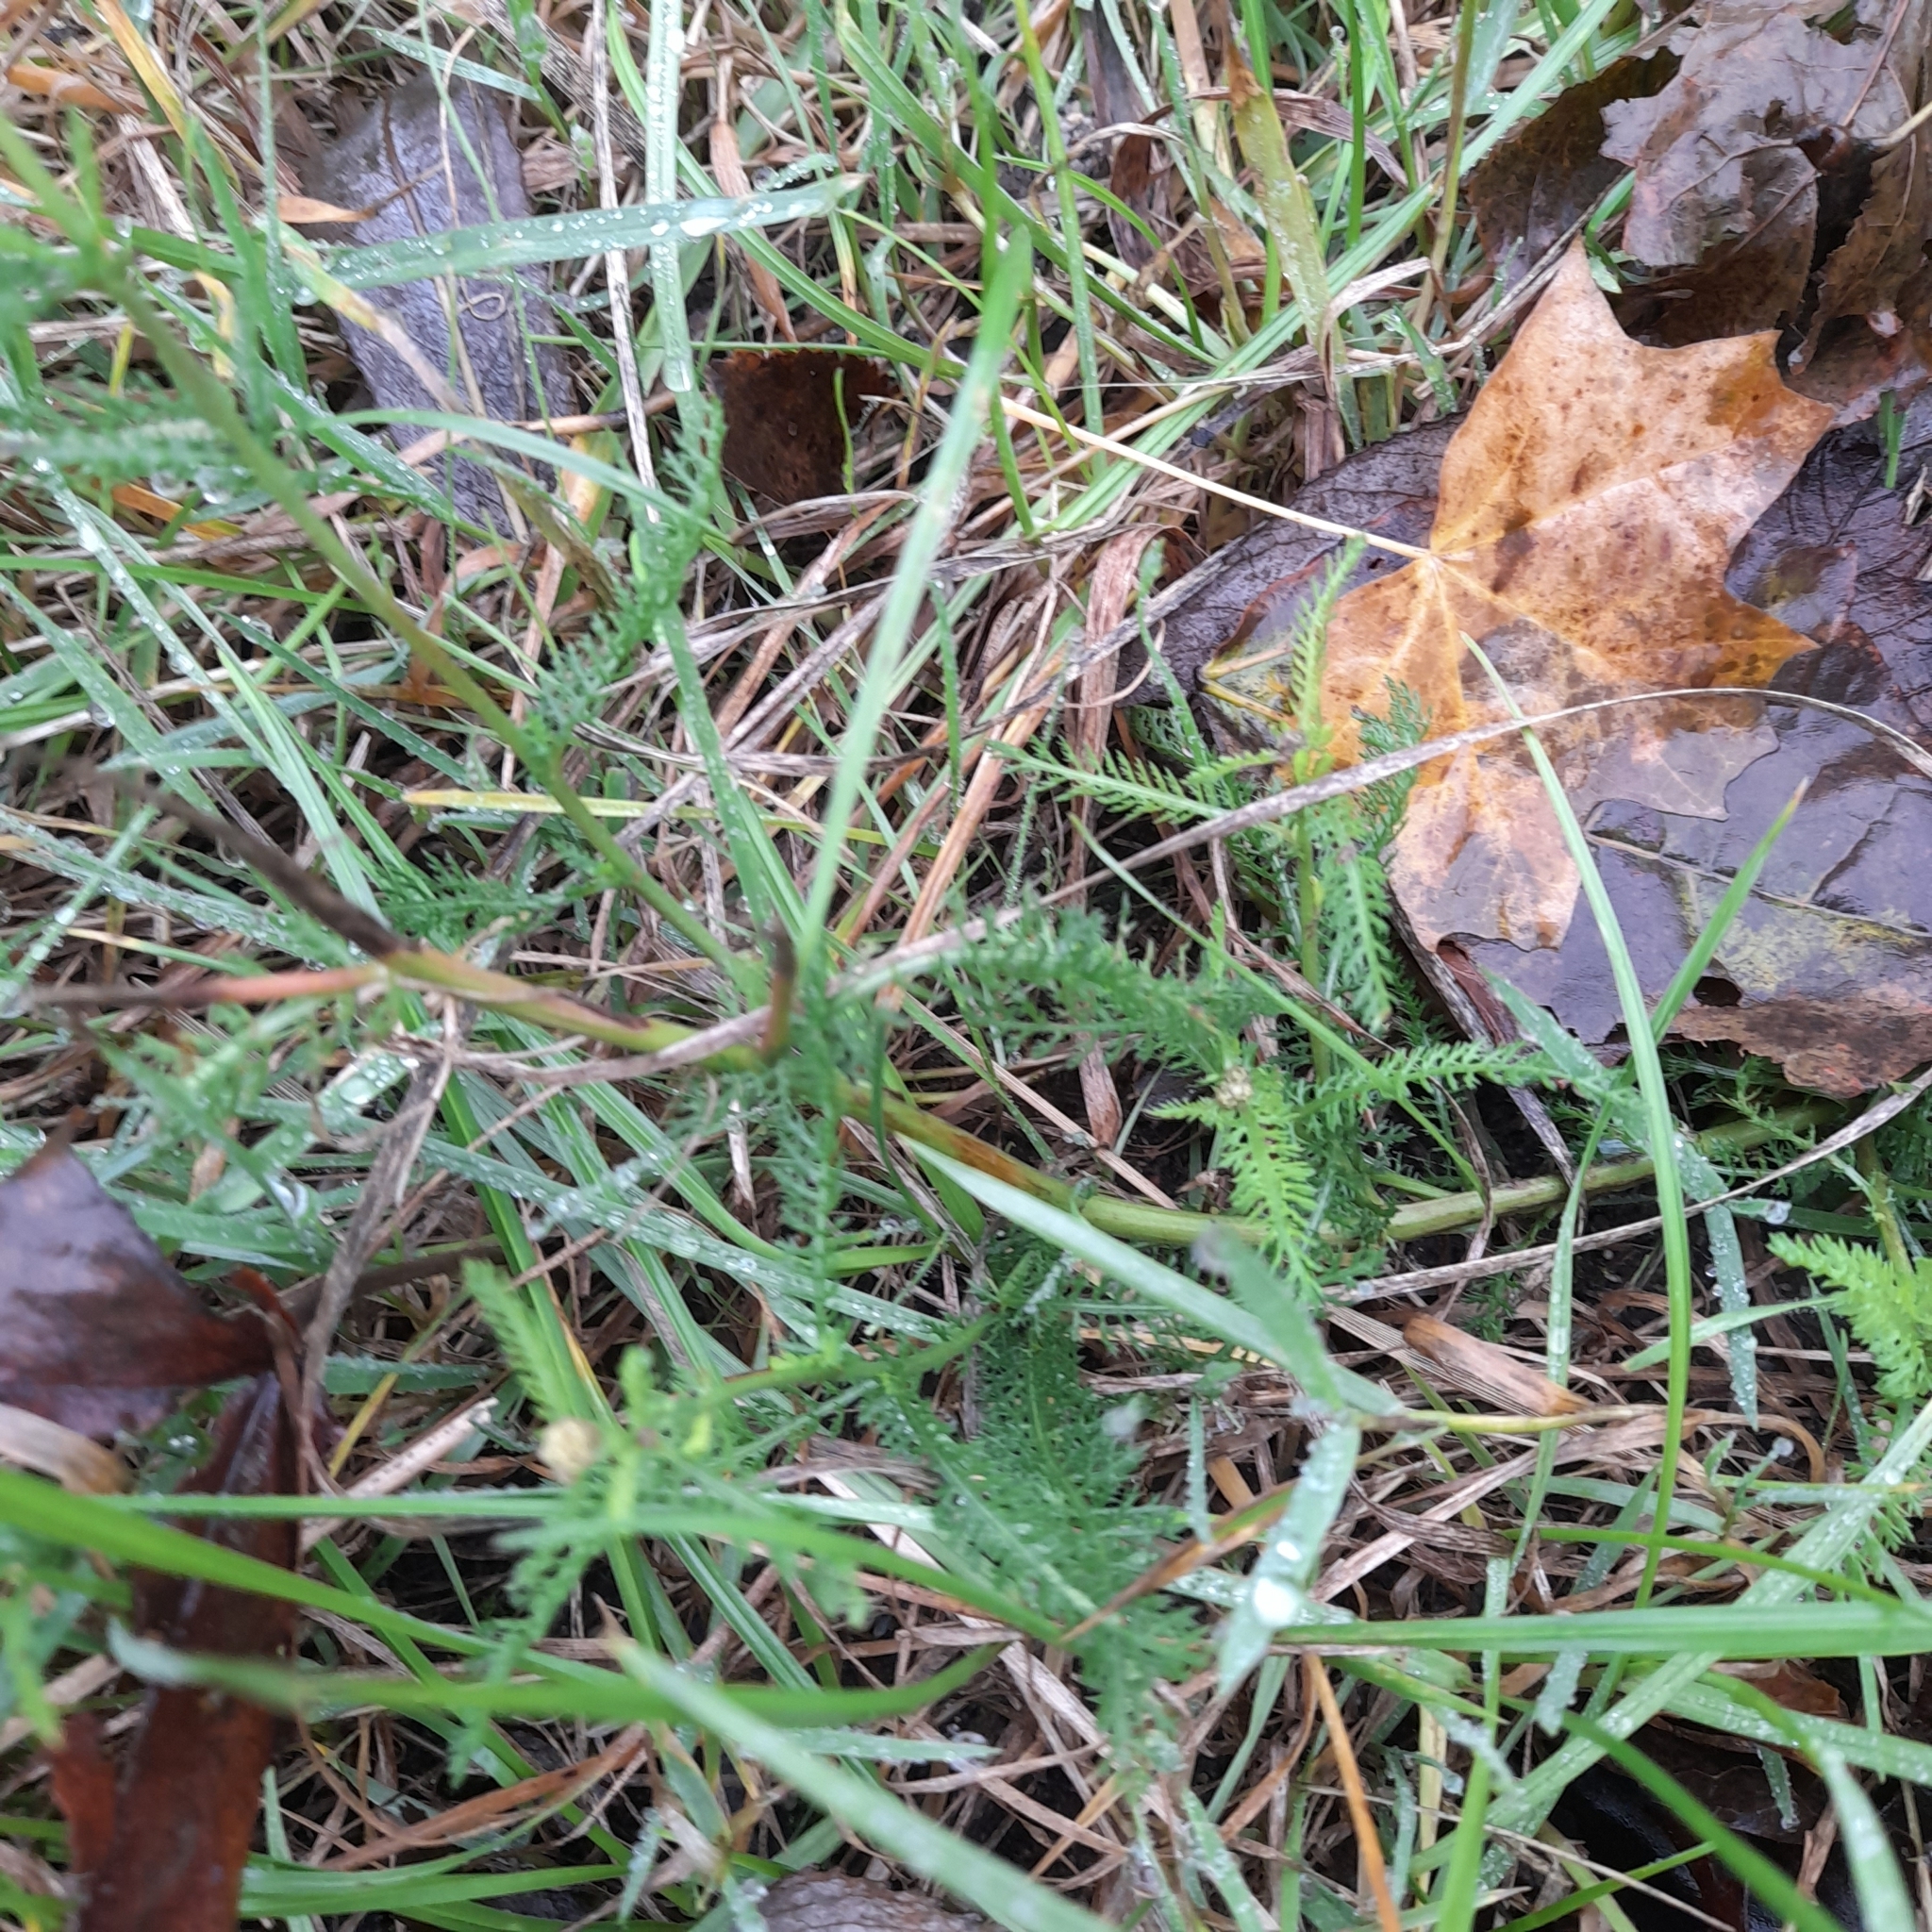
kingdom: Plantae
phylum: Tracheophyta
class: Magnoliopsida
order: Asterales
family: Asteraceae
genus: Achillea
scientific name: Achillea millefolium
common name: Yarrow
